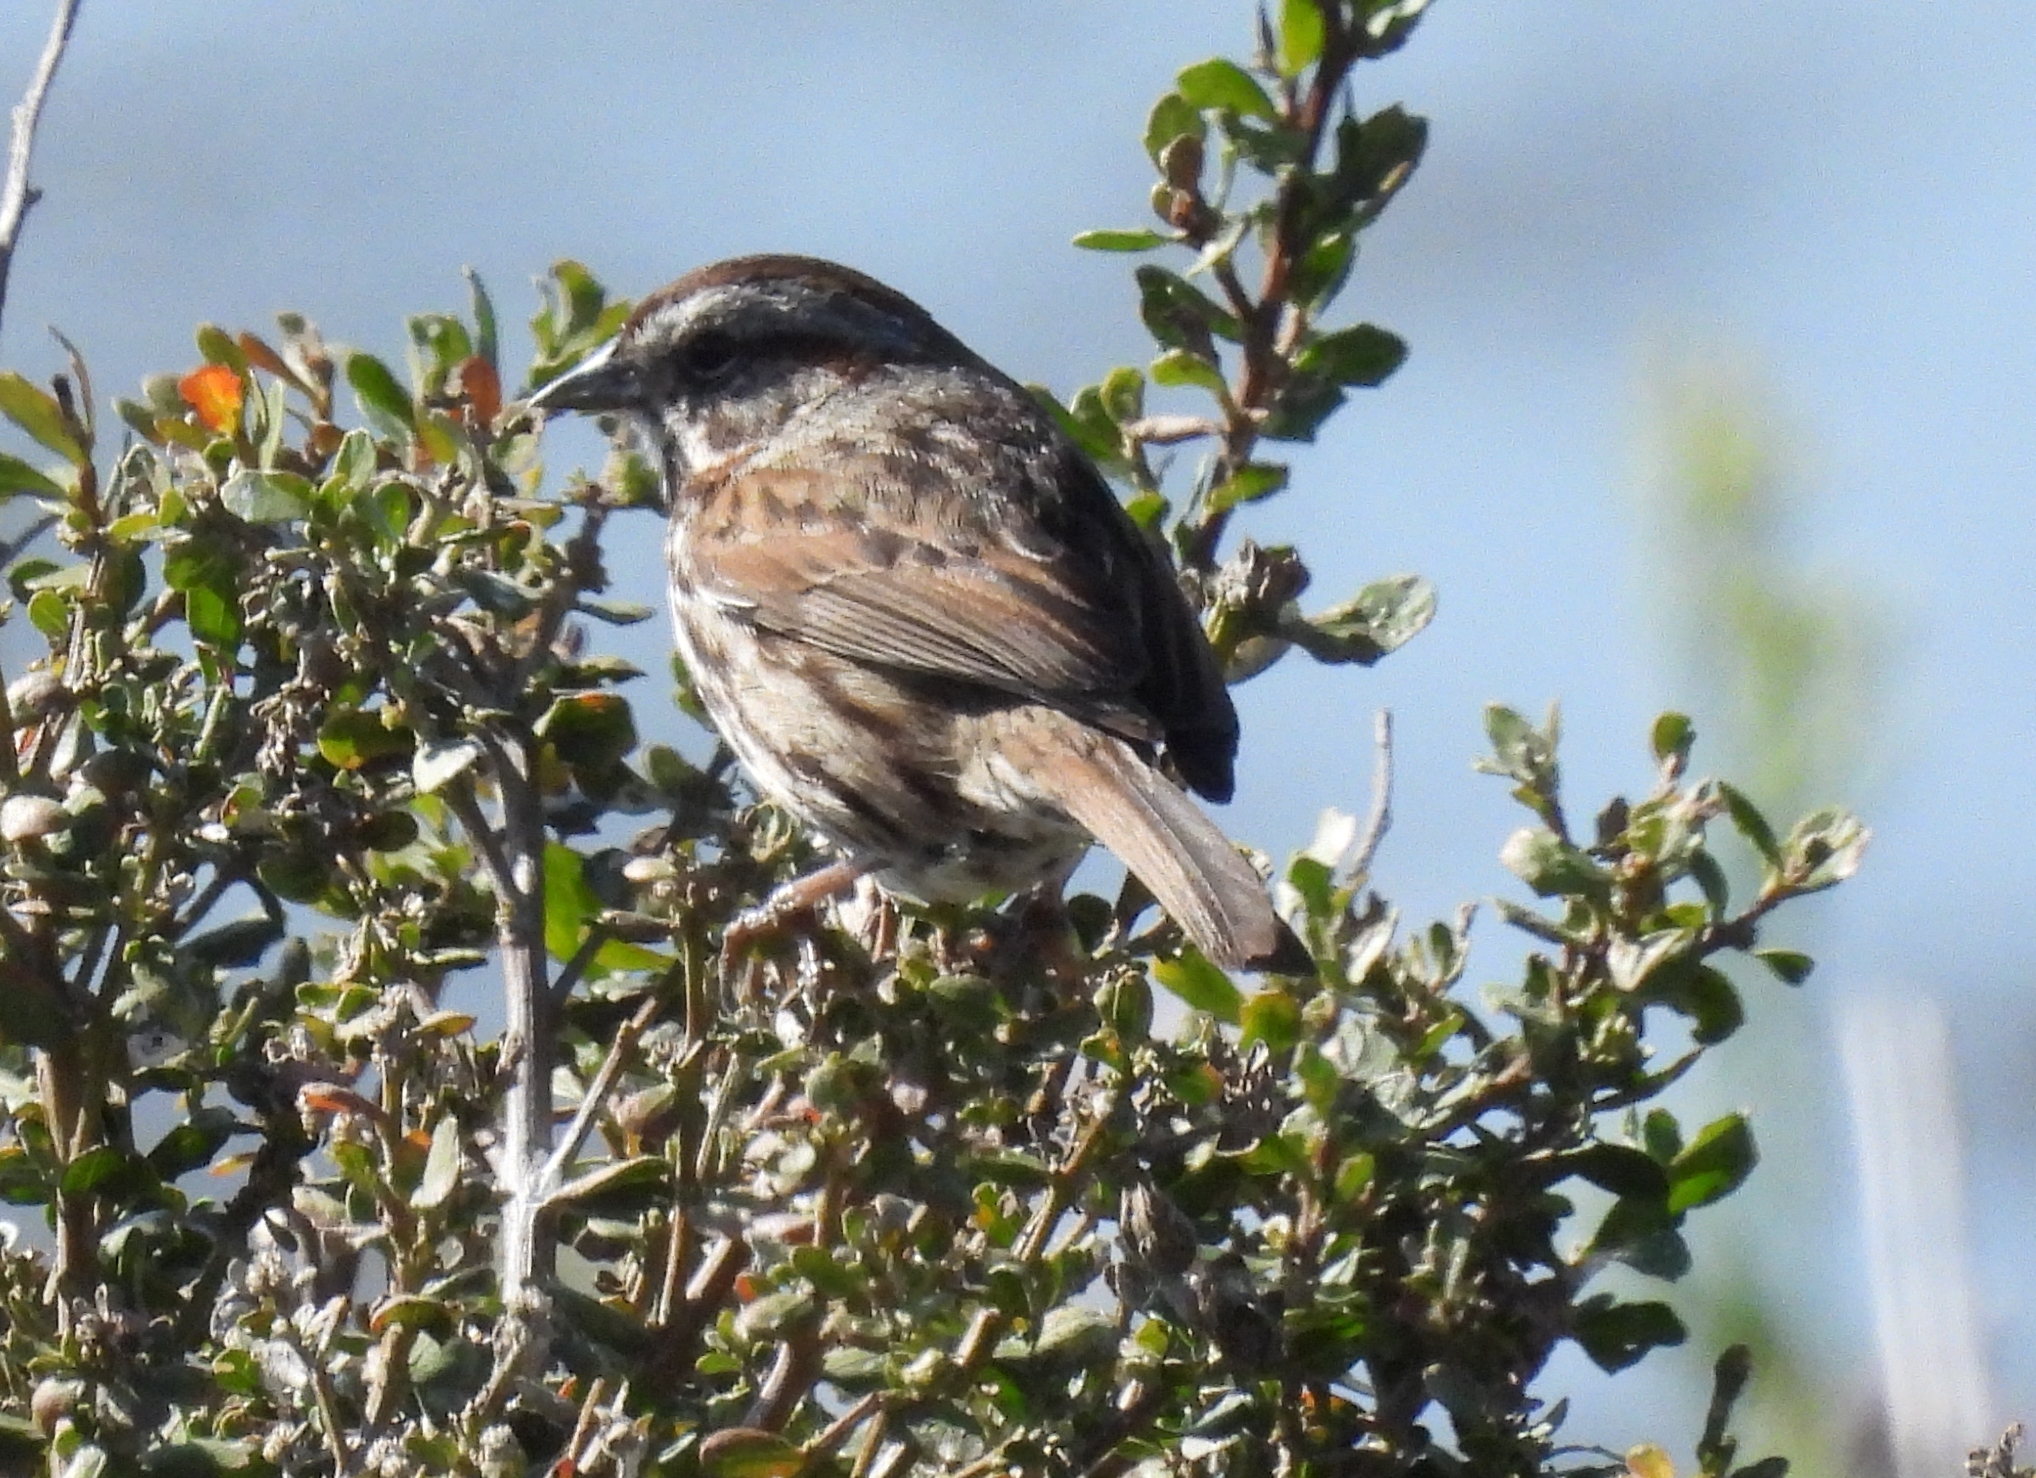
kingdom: Animalia
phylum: Chordata
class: Aves
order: Passeriformes
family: Passerellidae
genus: Melospiza
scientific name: Melospiza melodia
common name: Song sparrow
